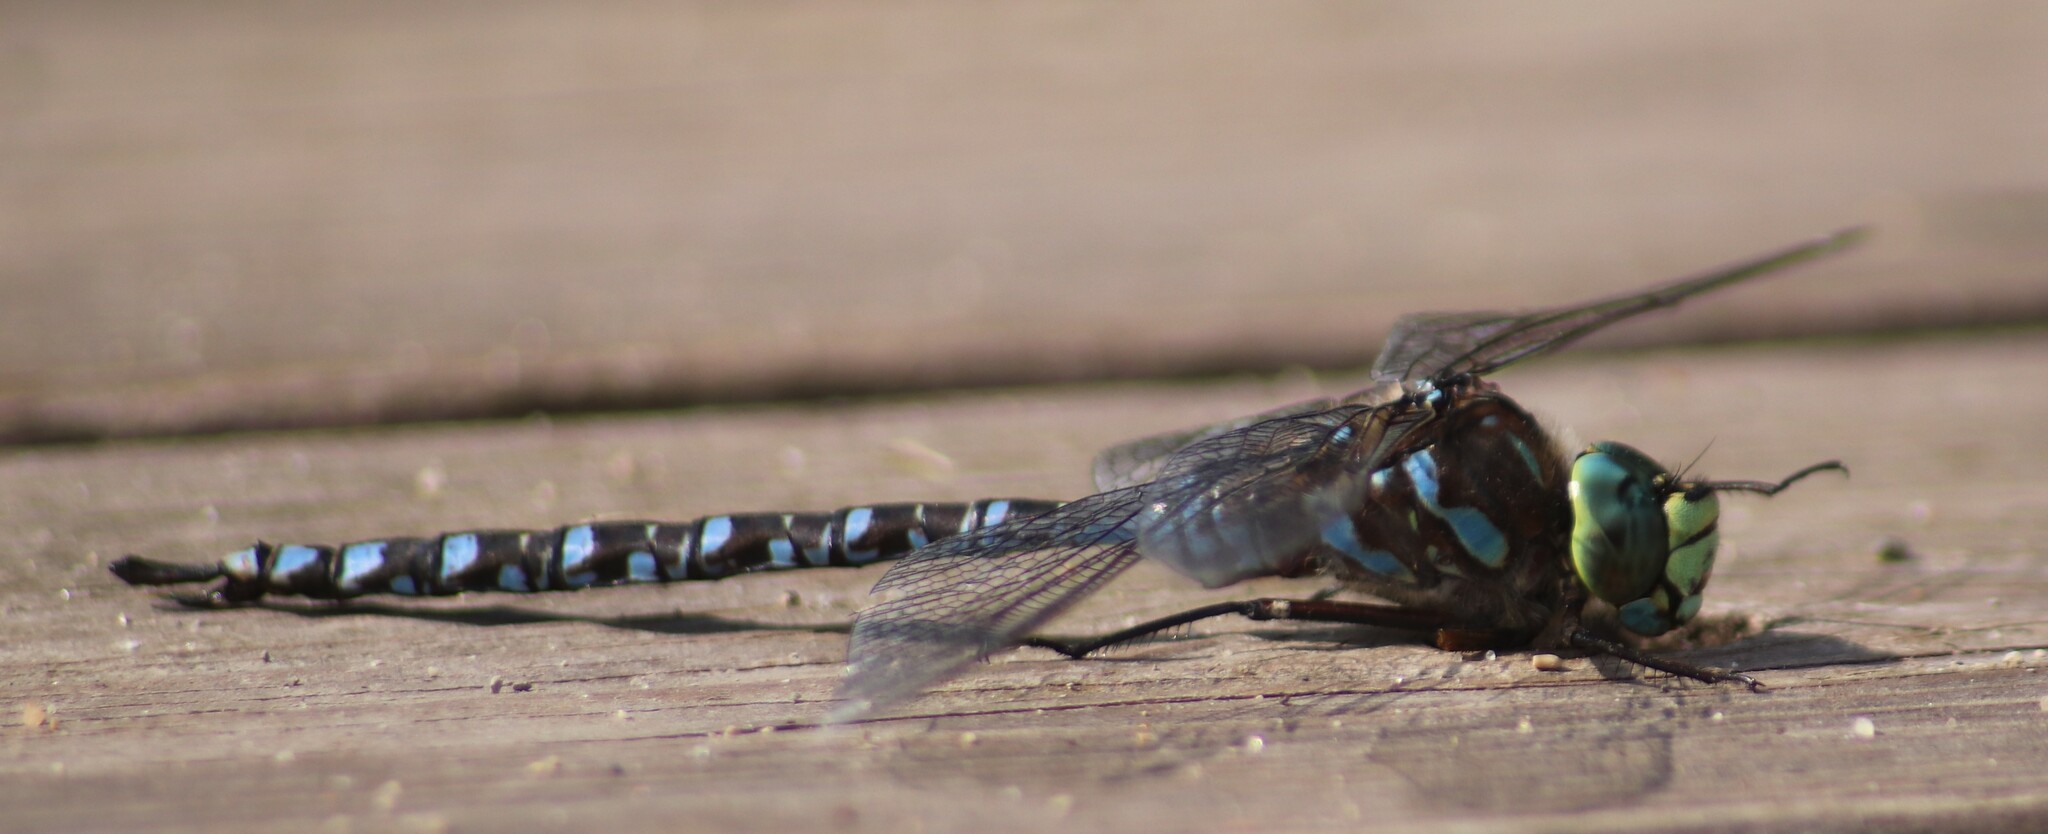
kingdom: Animalia
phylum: Arthropoda
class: Insecta
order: Odonata
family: Aeshnidae
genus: Aeshna
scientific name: Aeshna eremita
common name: Lake darner
